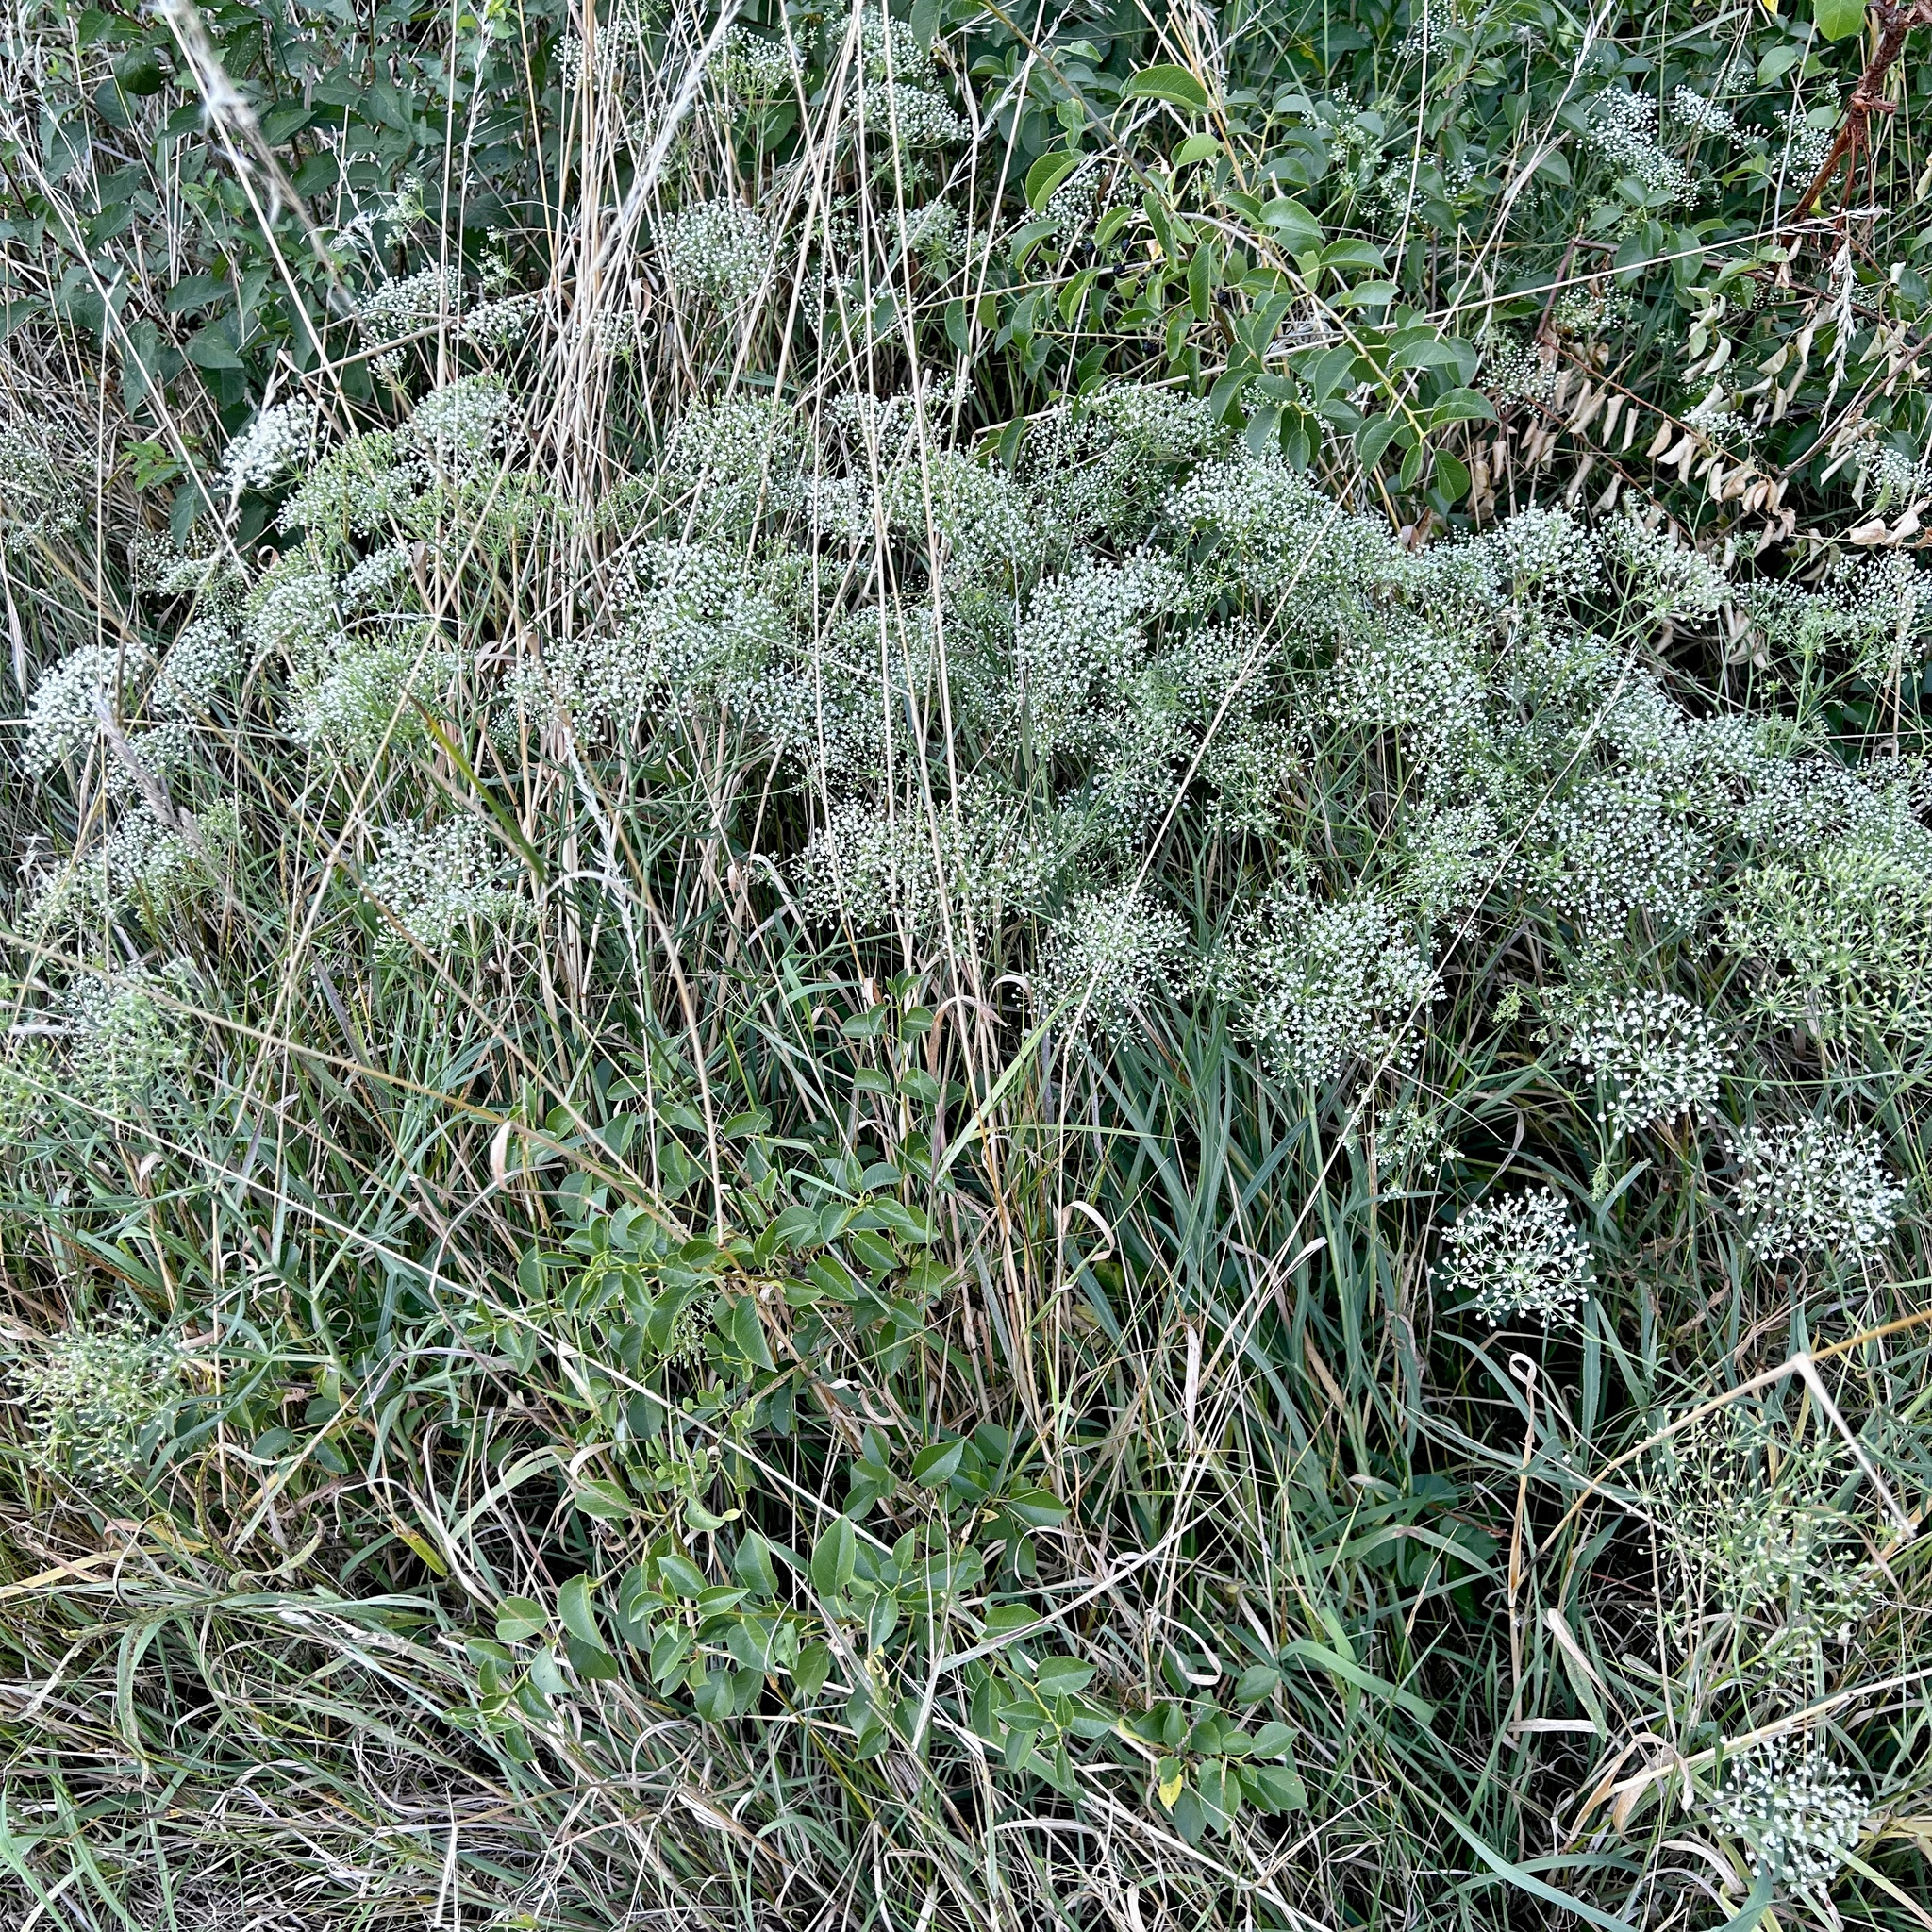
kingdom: Plantae
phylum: Tracheophyta
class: Magnoliopsida
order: Apiales
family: Apiaceae
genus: Falcaria
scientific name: Falcaria vulgaris
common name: Longleaf
